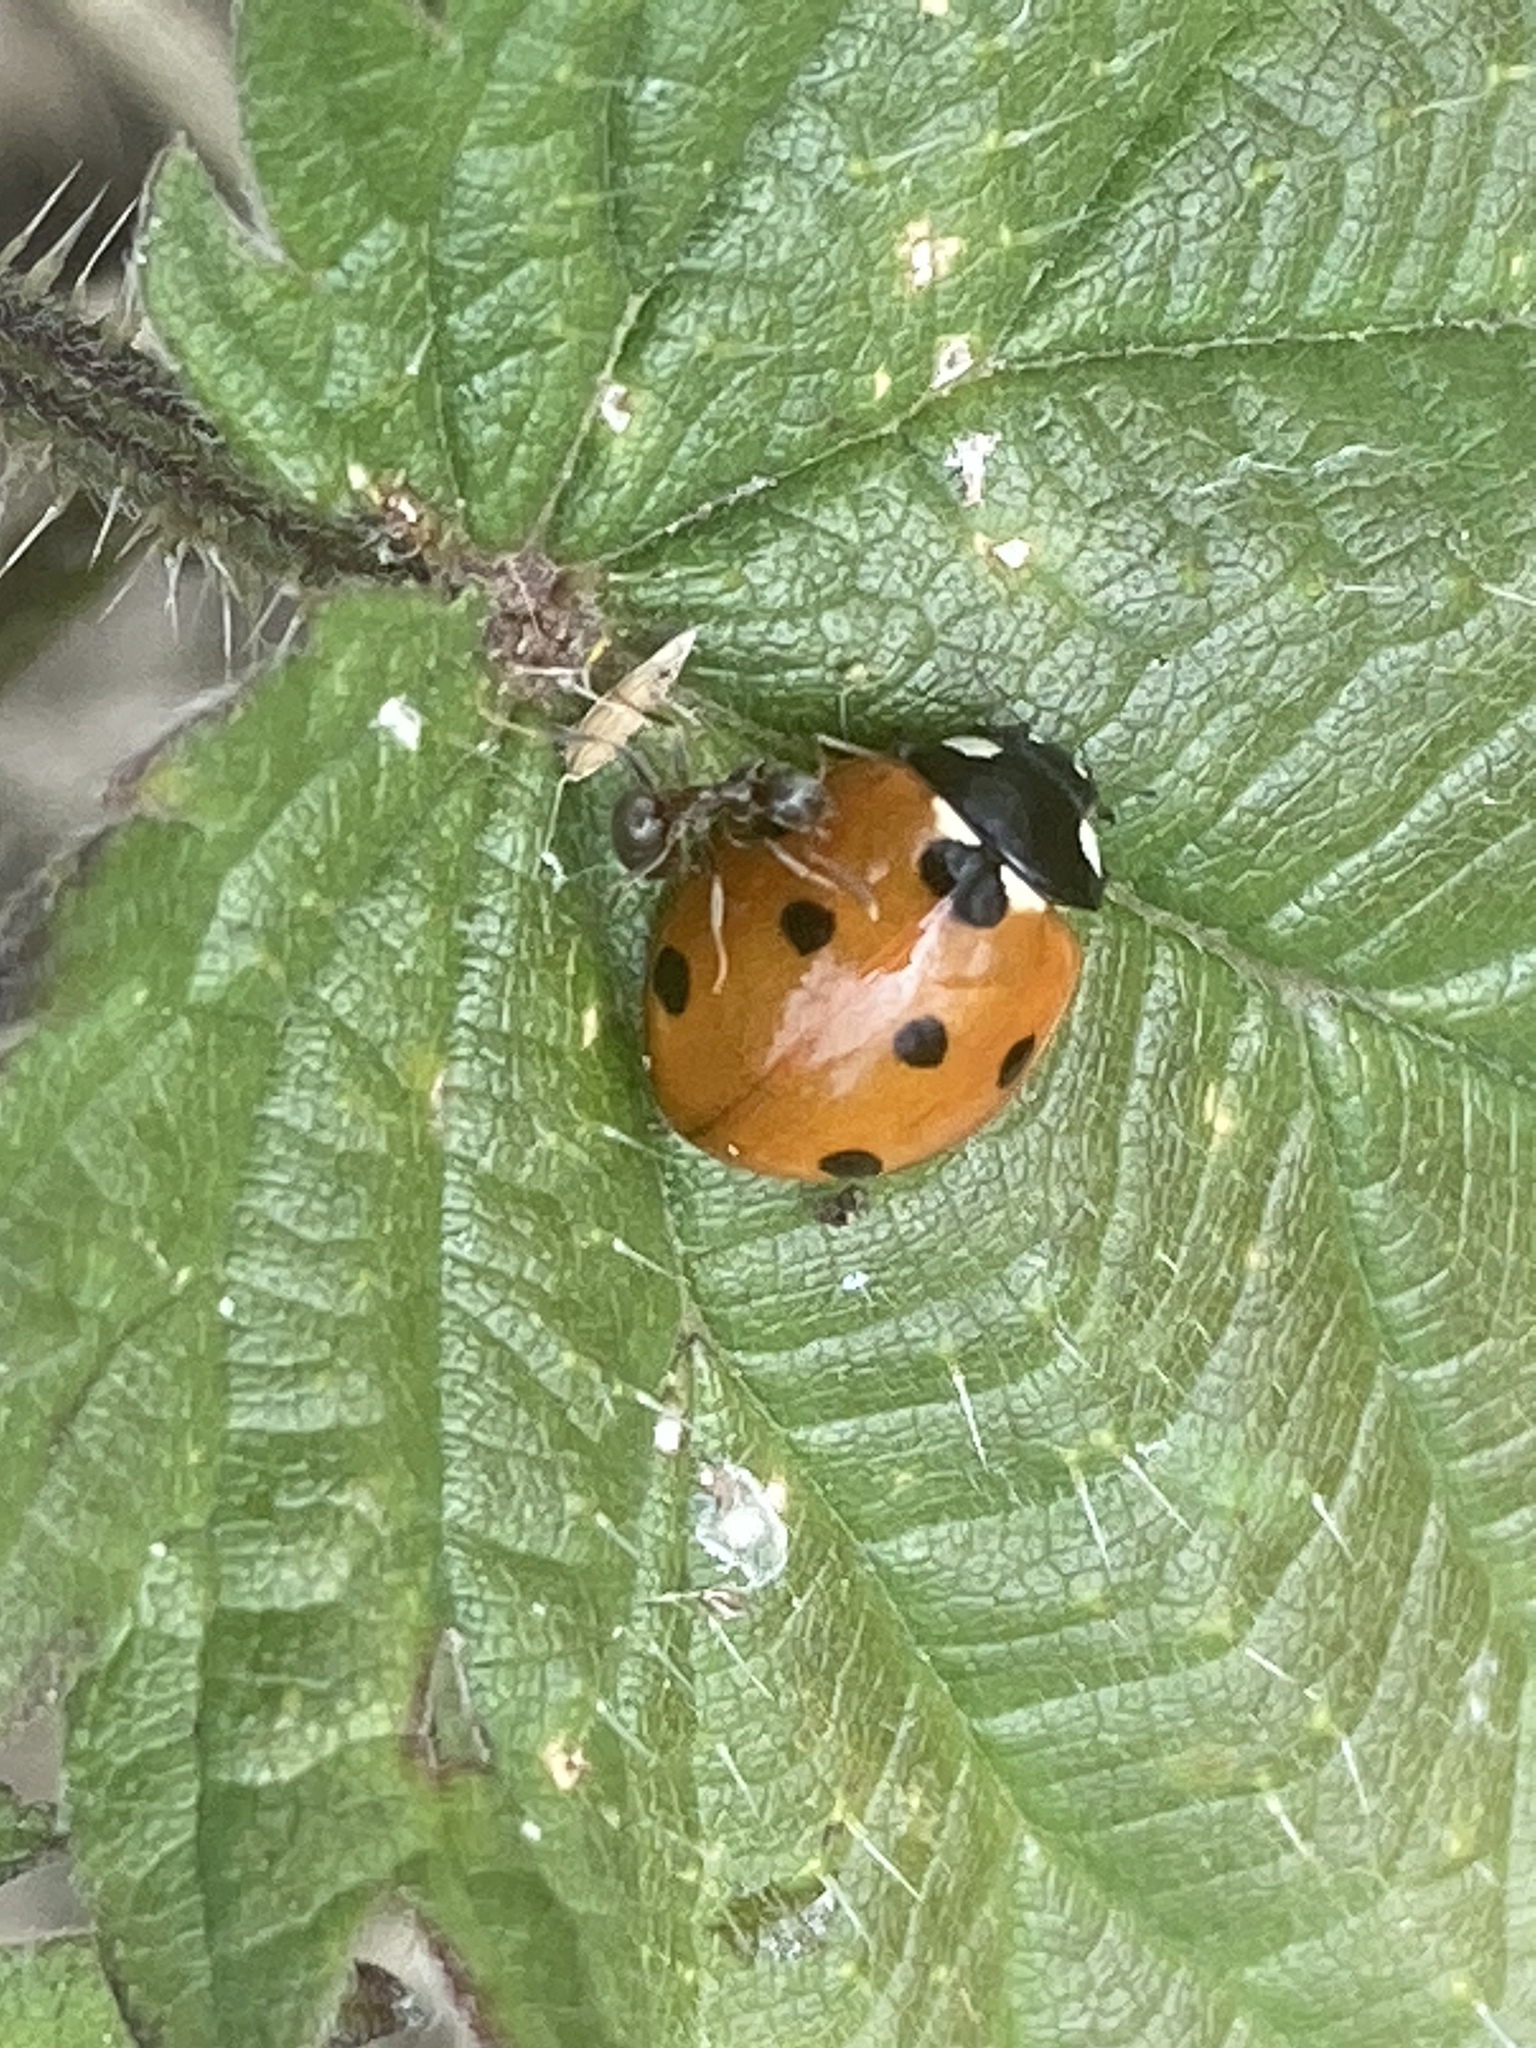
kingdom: Animalia
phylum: Arthropoda
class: Insecta
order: Coleoptera
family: Coccinellidae
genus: Coccinella
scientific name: Coccinella septempunctata
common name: Sevenspotted lady beetle
